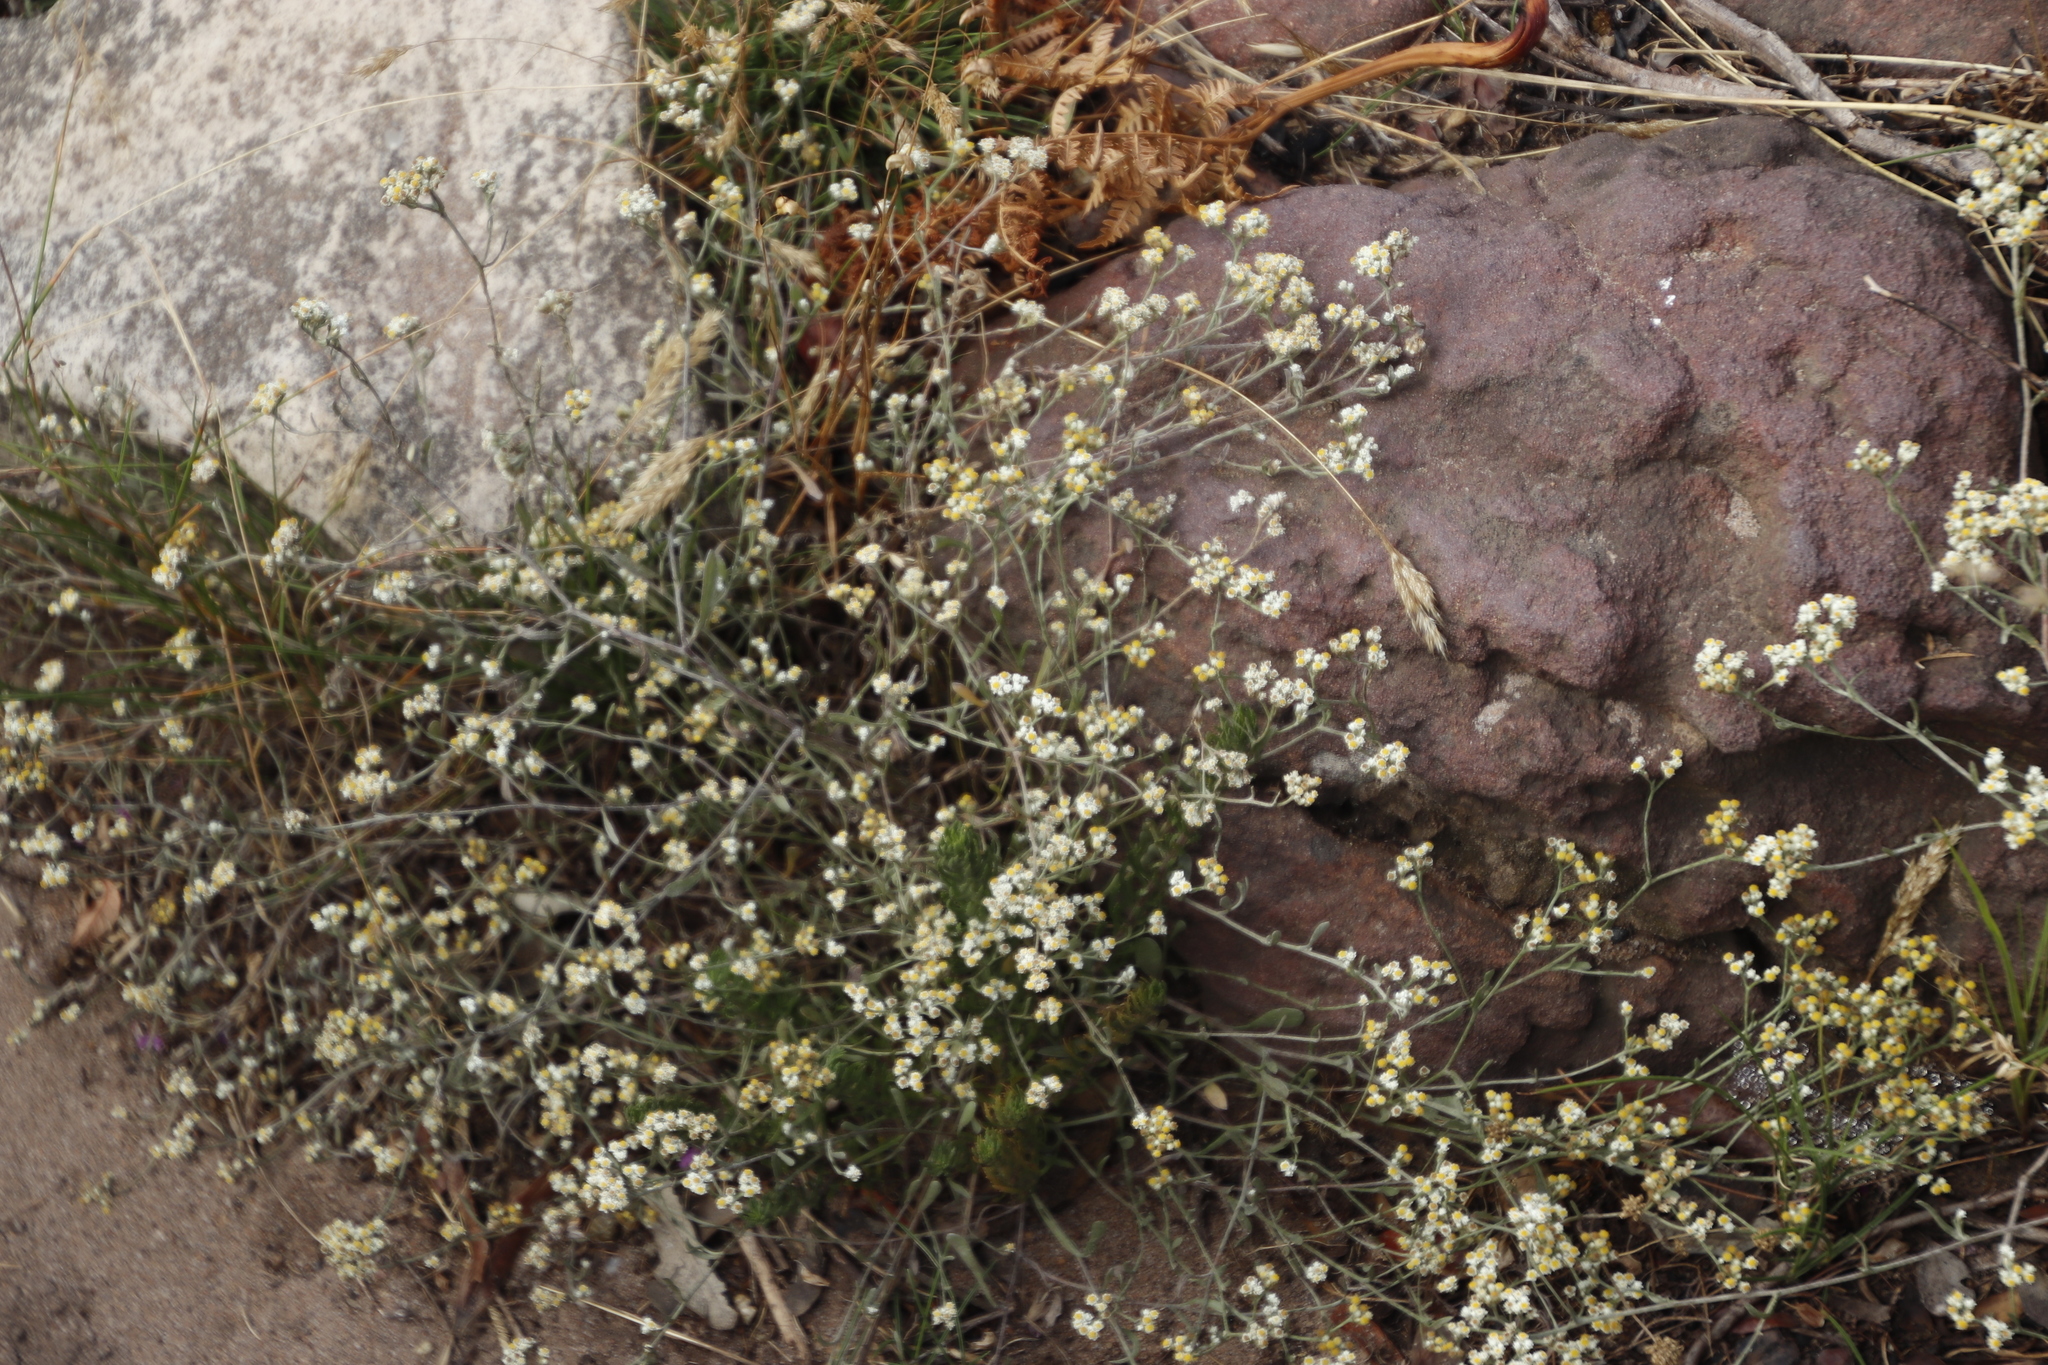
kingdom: Plantae
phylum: Tracheophyta
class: Magnoliopsida
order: Asterales
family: Asteraceae
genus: Helichrysum
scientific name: Helichrysum indicum
